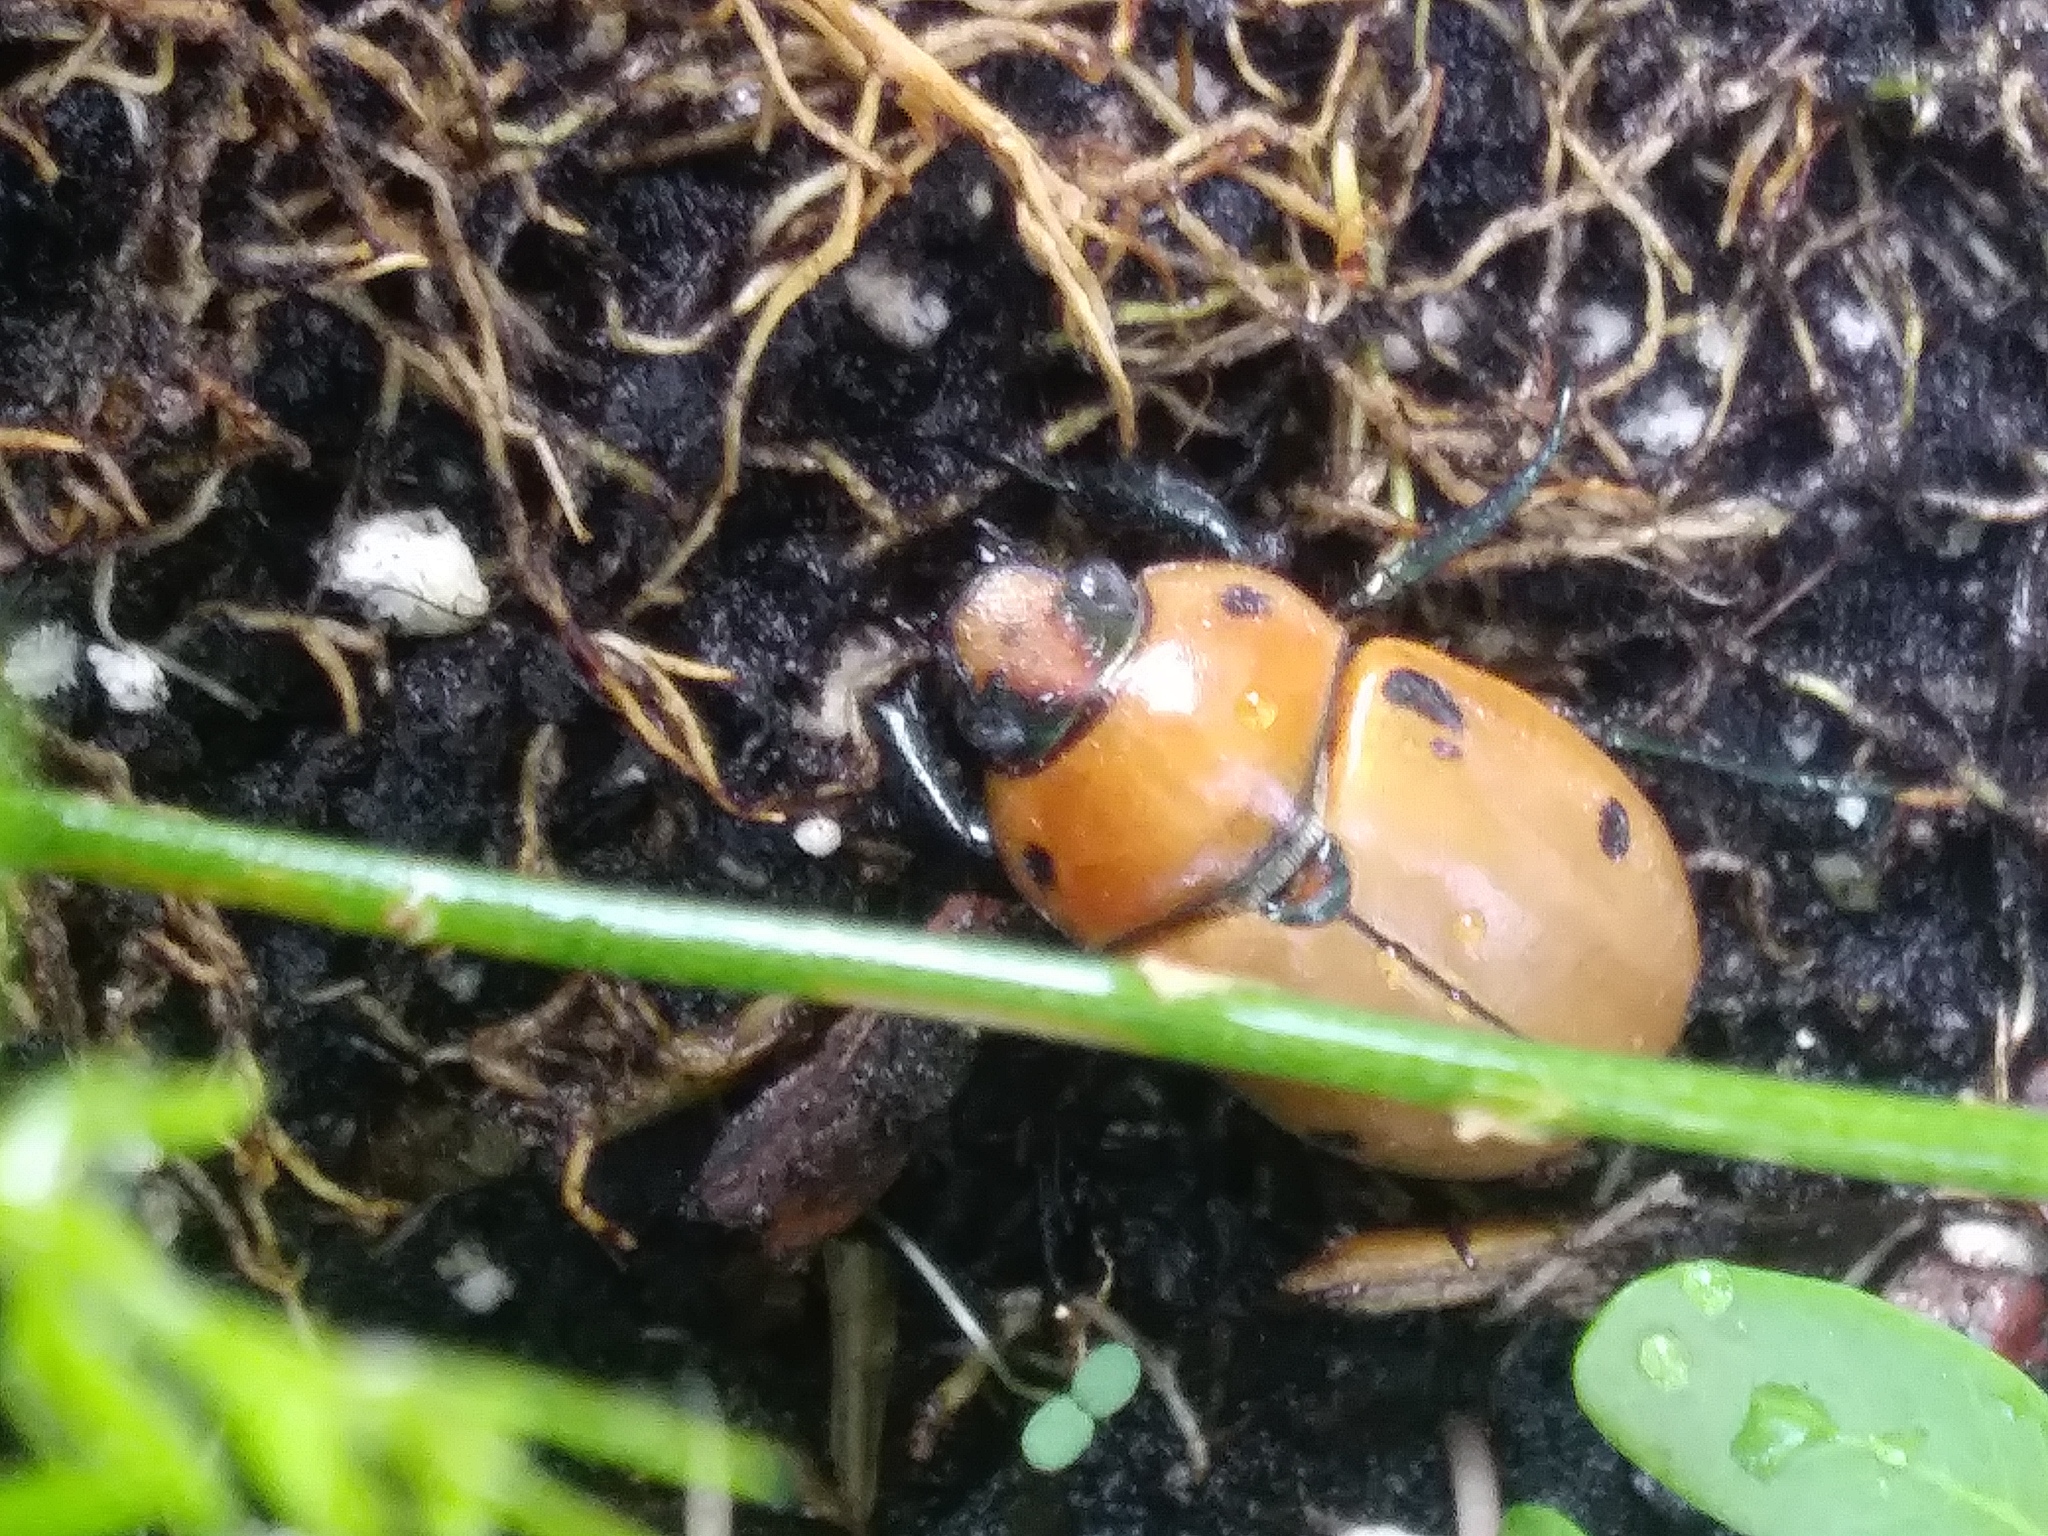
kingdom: Animalia
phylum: Arthropoda
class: Insecta
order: Coleoptera
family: Scarabaeidae
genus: Pelidnota
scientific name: Pelidnota punctata
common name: Grapevine beetle
